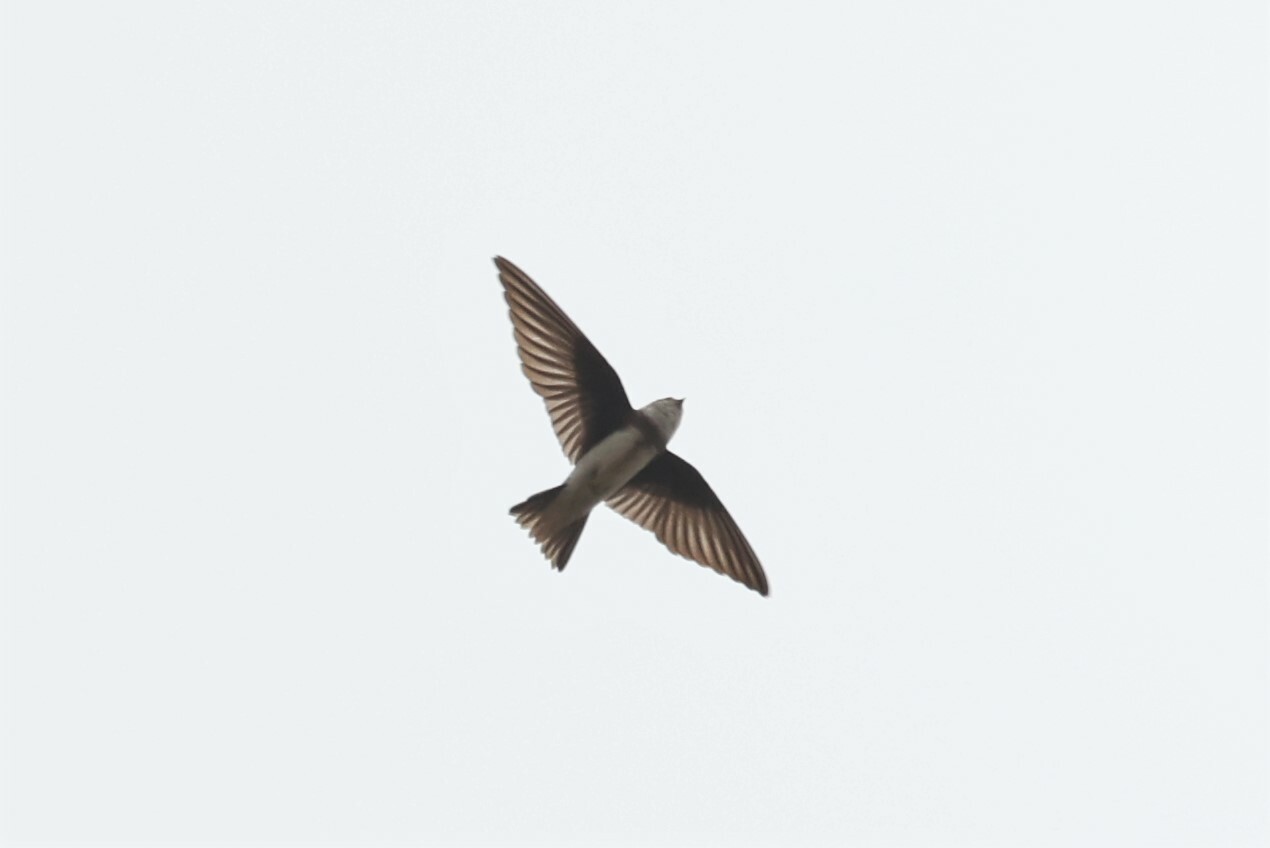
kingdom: Animalia
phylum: Chordata
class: Aves
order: Passeriformes
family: Hirundinidae
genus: Riparia
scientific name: Riparia riparia
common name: Sand martin
